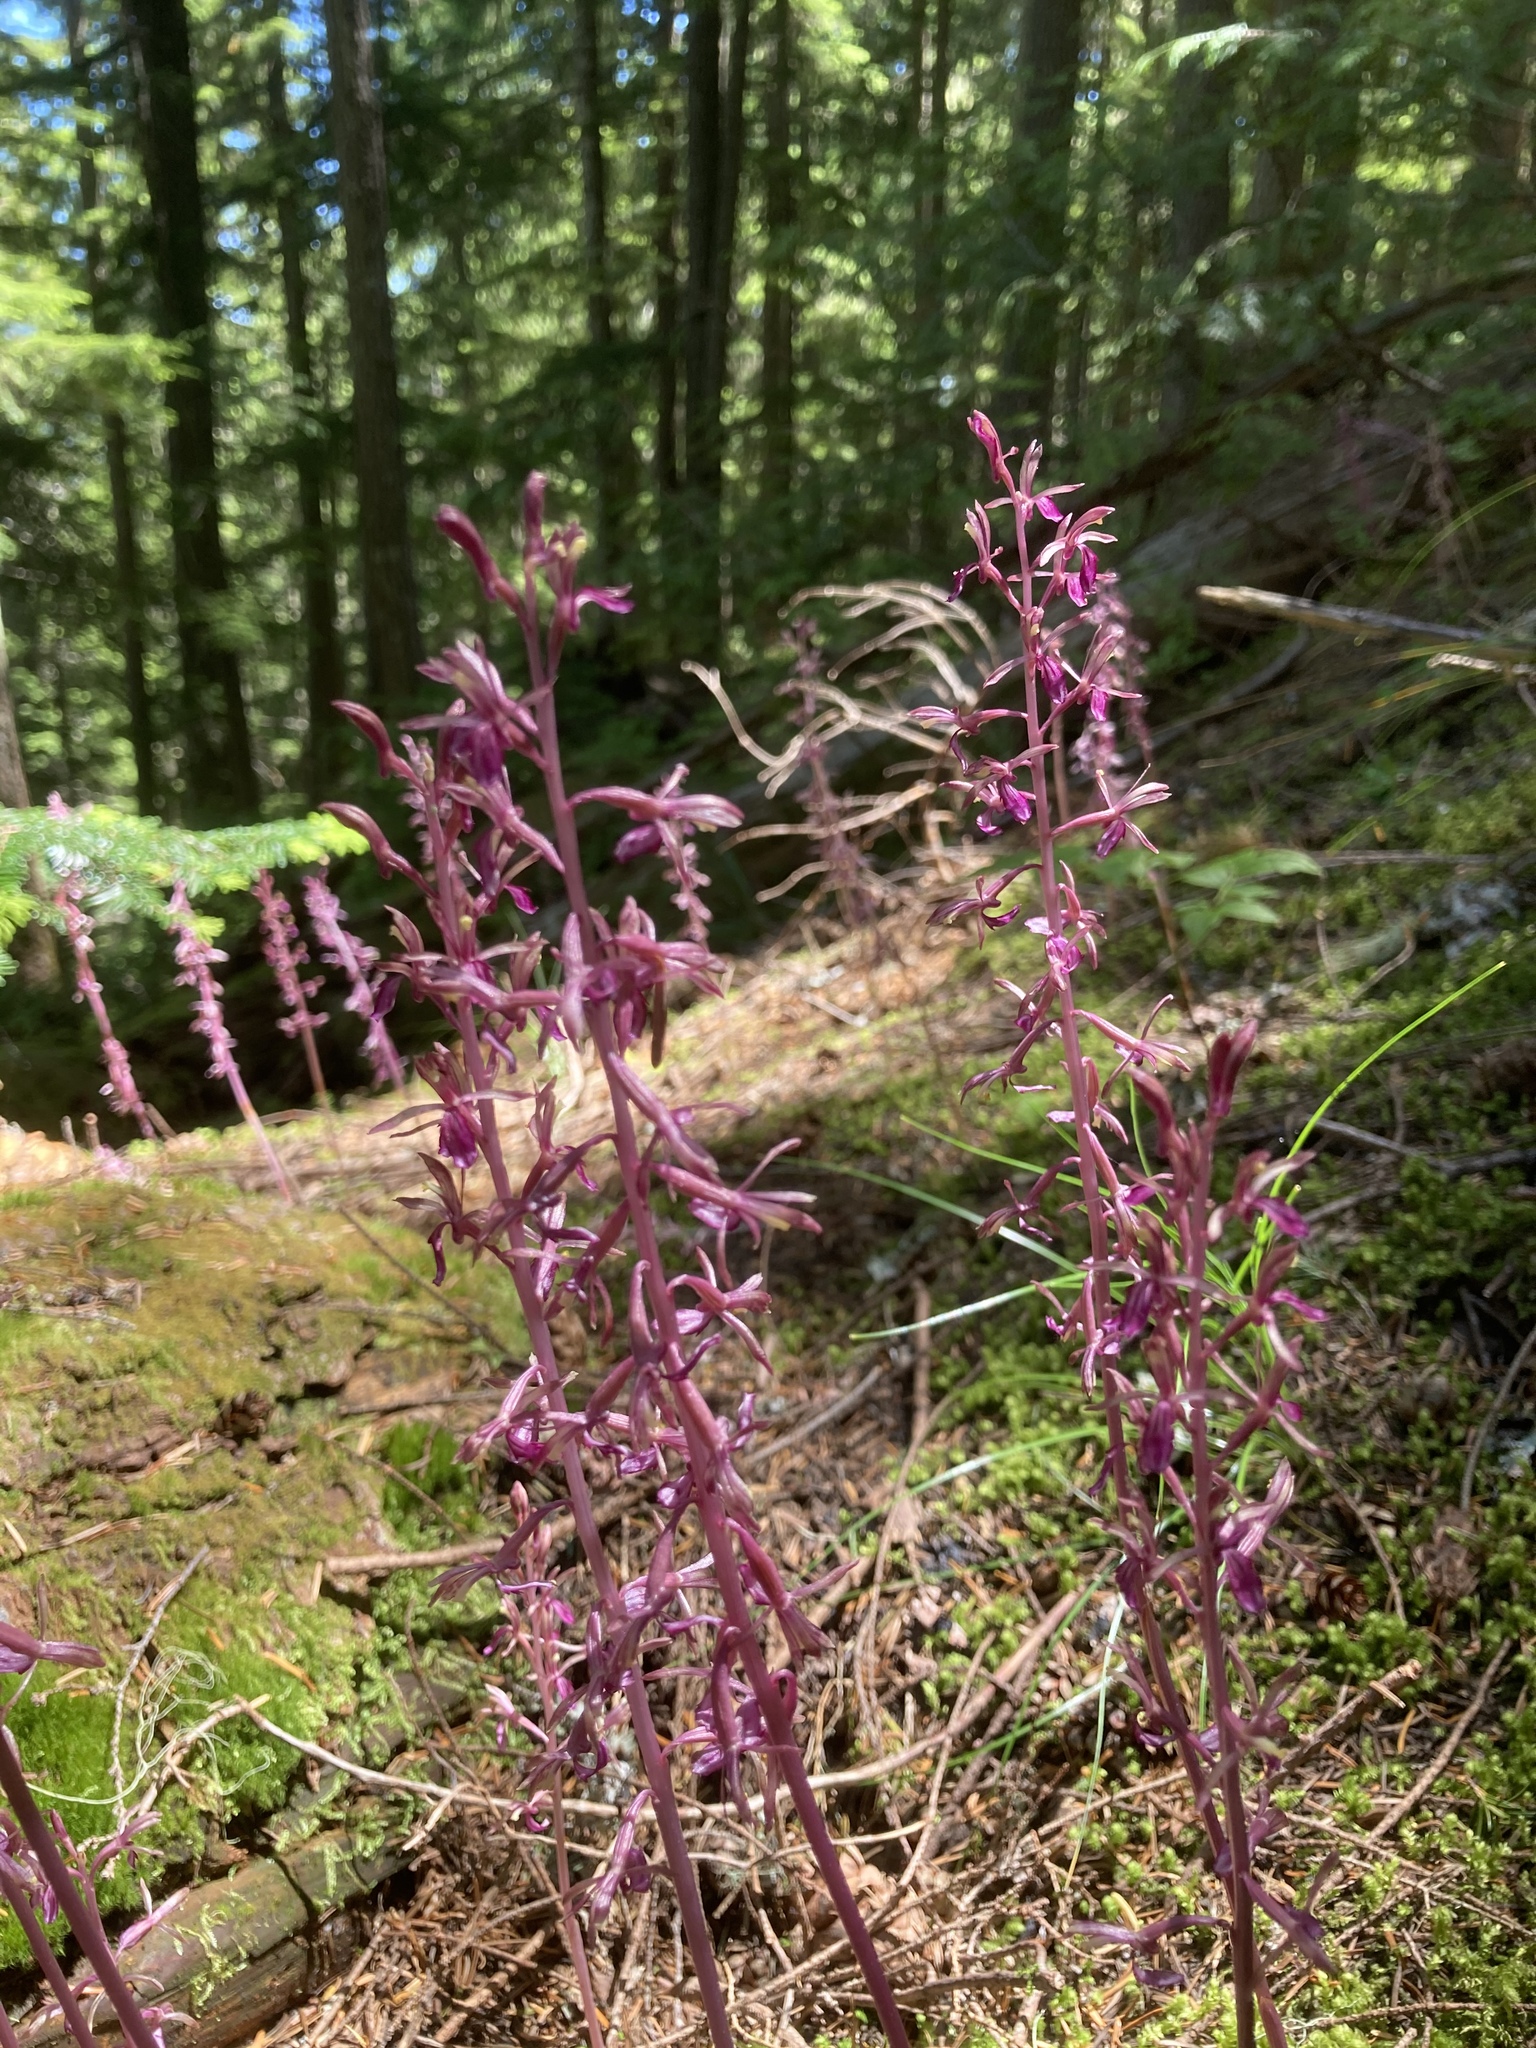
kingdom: Plantae
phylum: Tracheophyta
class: Liliopsida
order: Asparagales
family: Orchidaceae
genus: Corallorhiza
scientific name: Corallorhiza mertensiana
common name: Pacific coralroot
